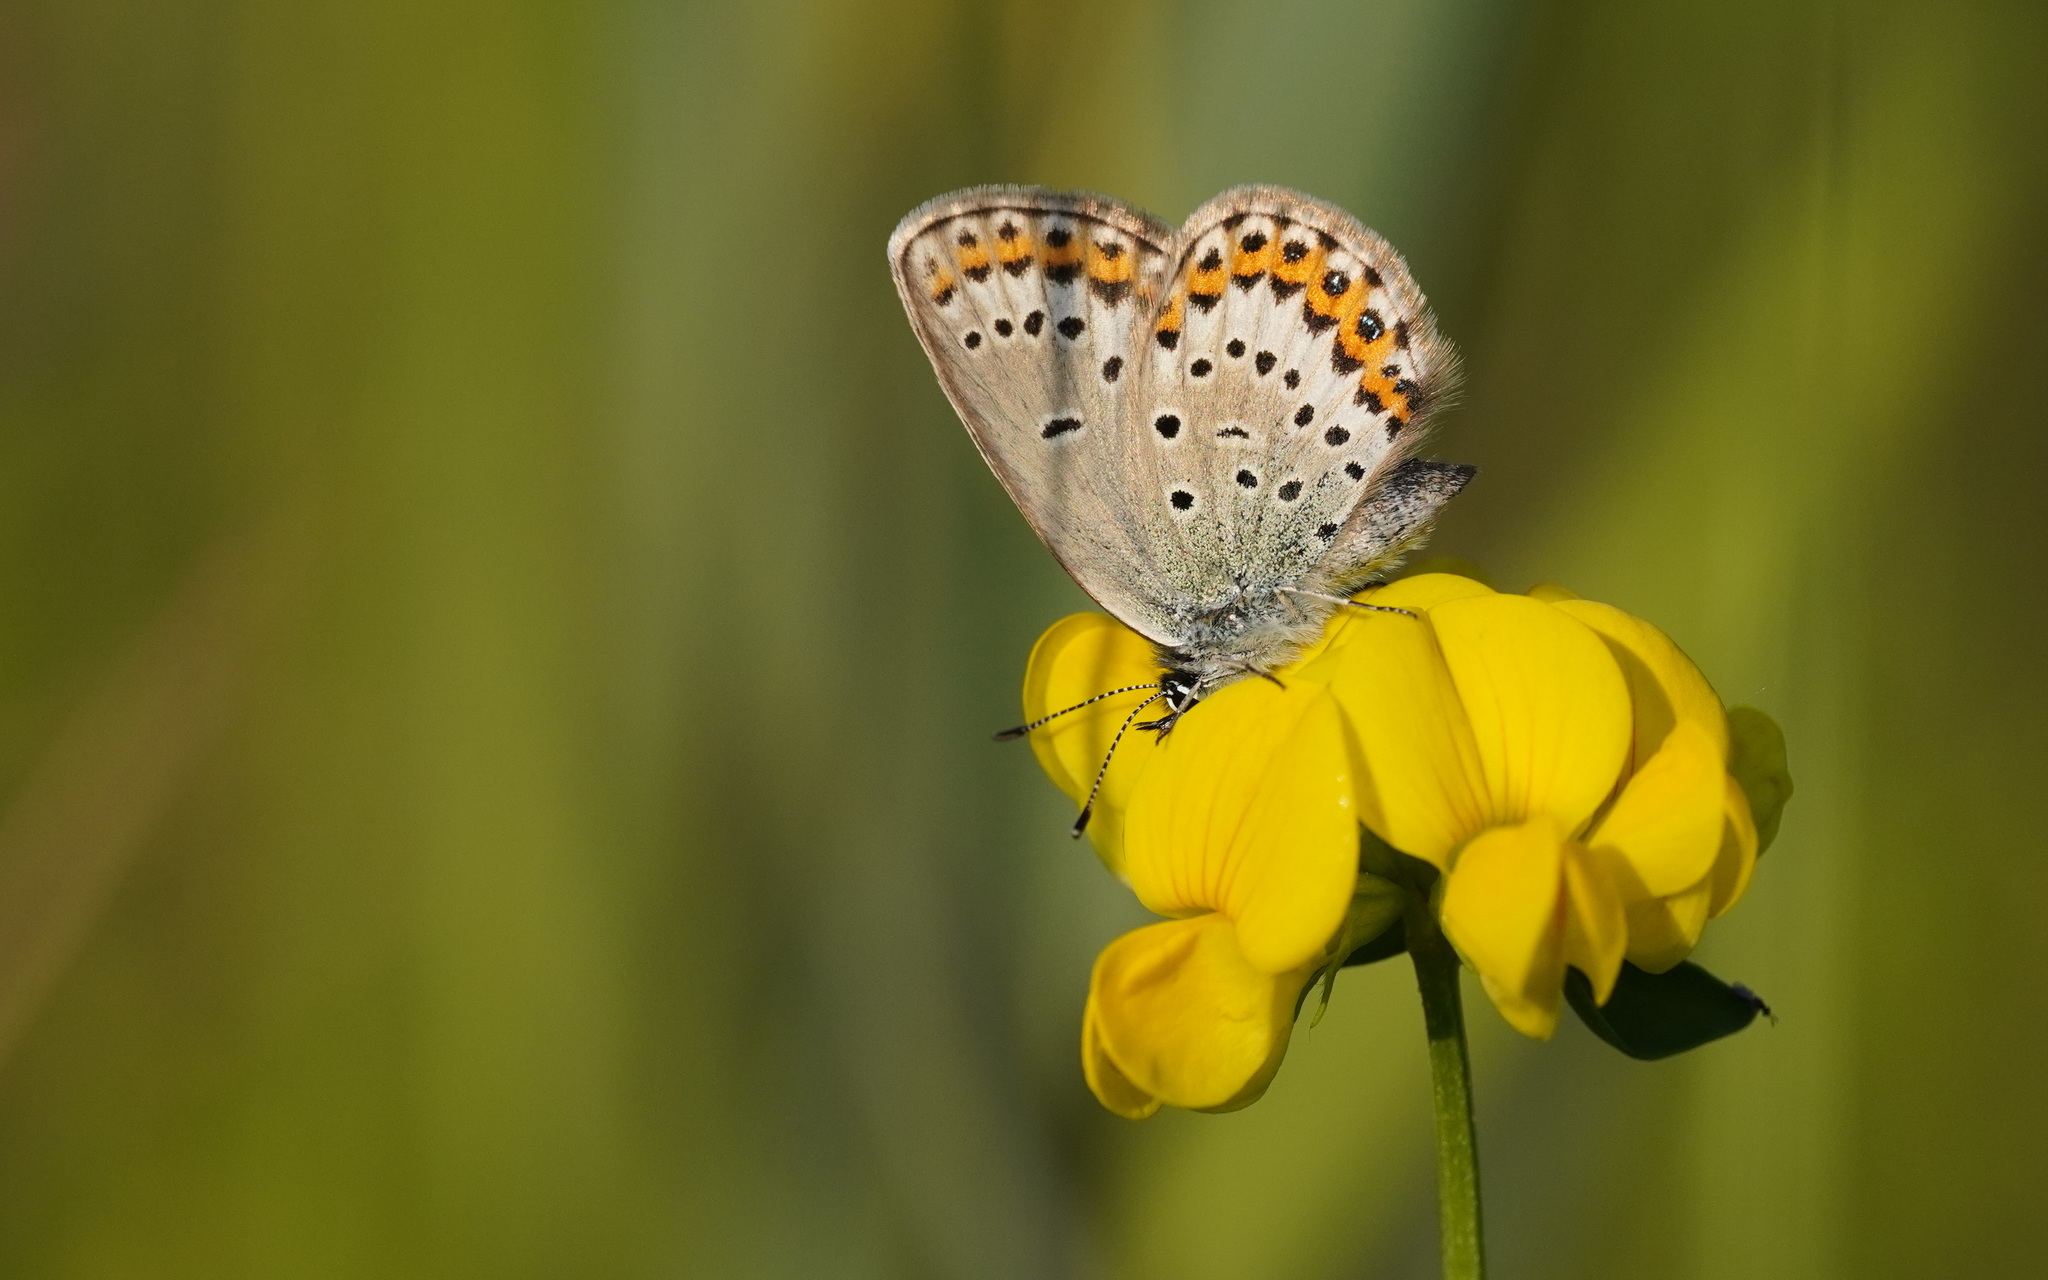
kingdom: Animalia
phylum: Arthropoda
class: Insecta
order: Lepidoptera
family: Lycaenidae
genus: Lycaeides
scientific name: Lycaeides idas
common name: Northern blue
